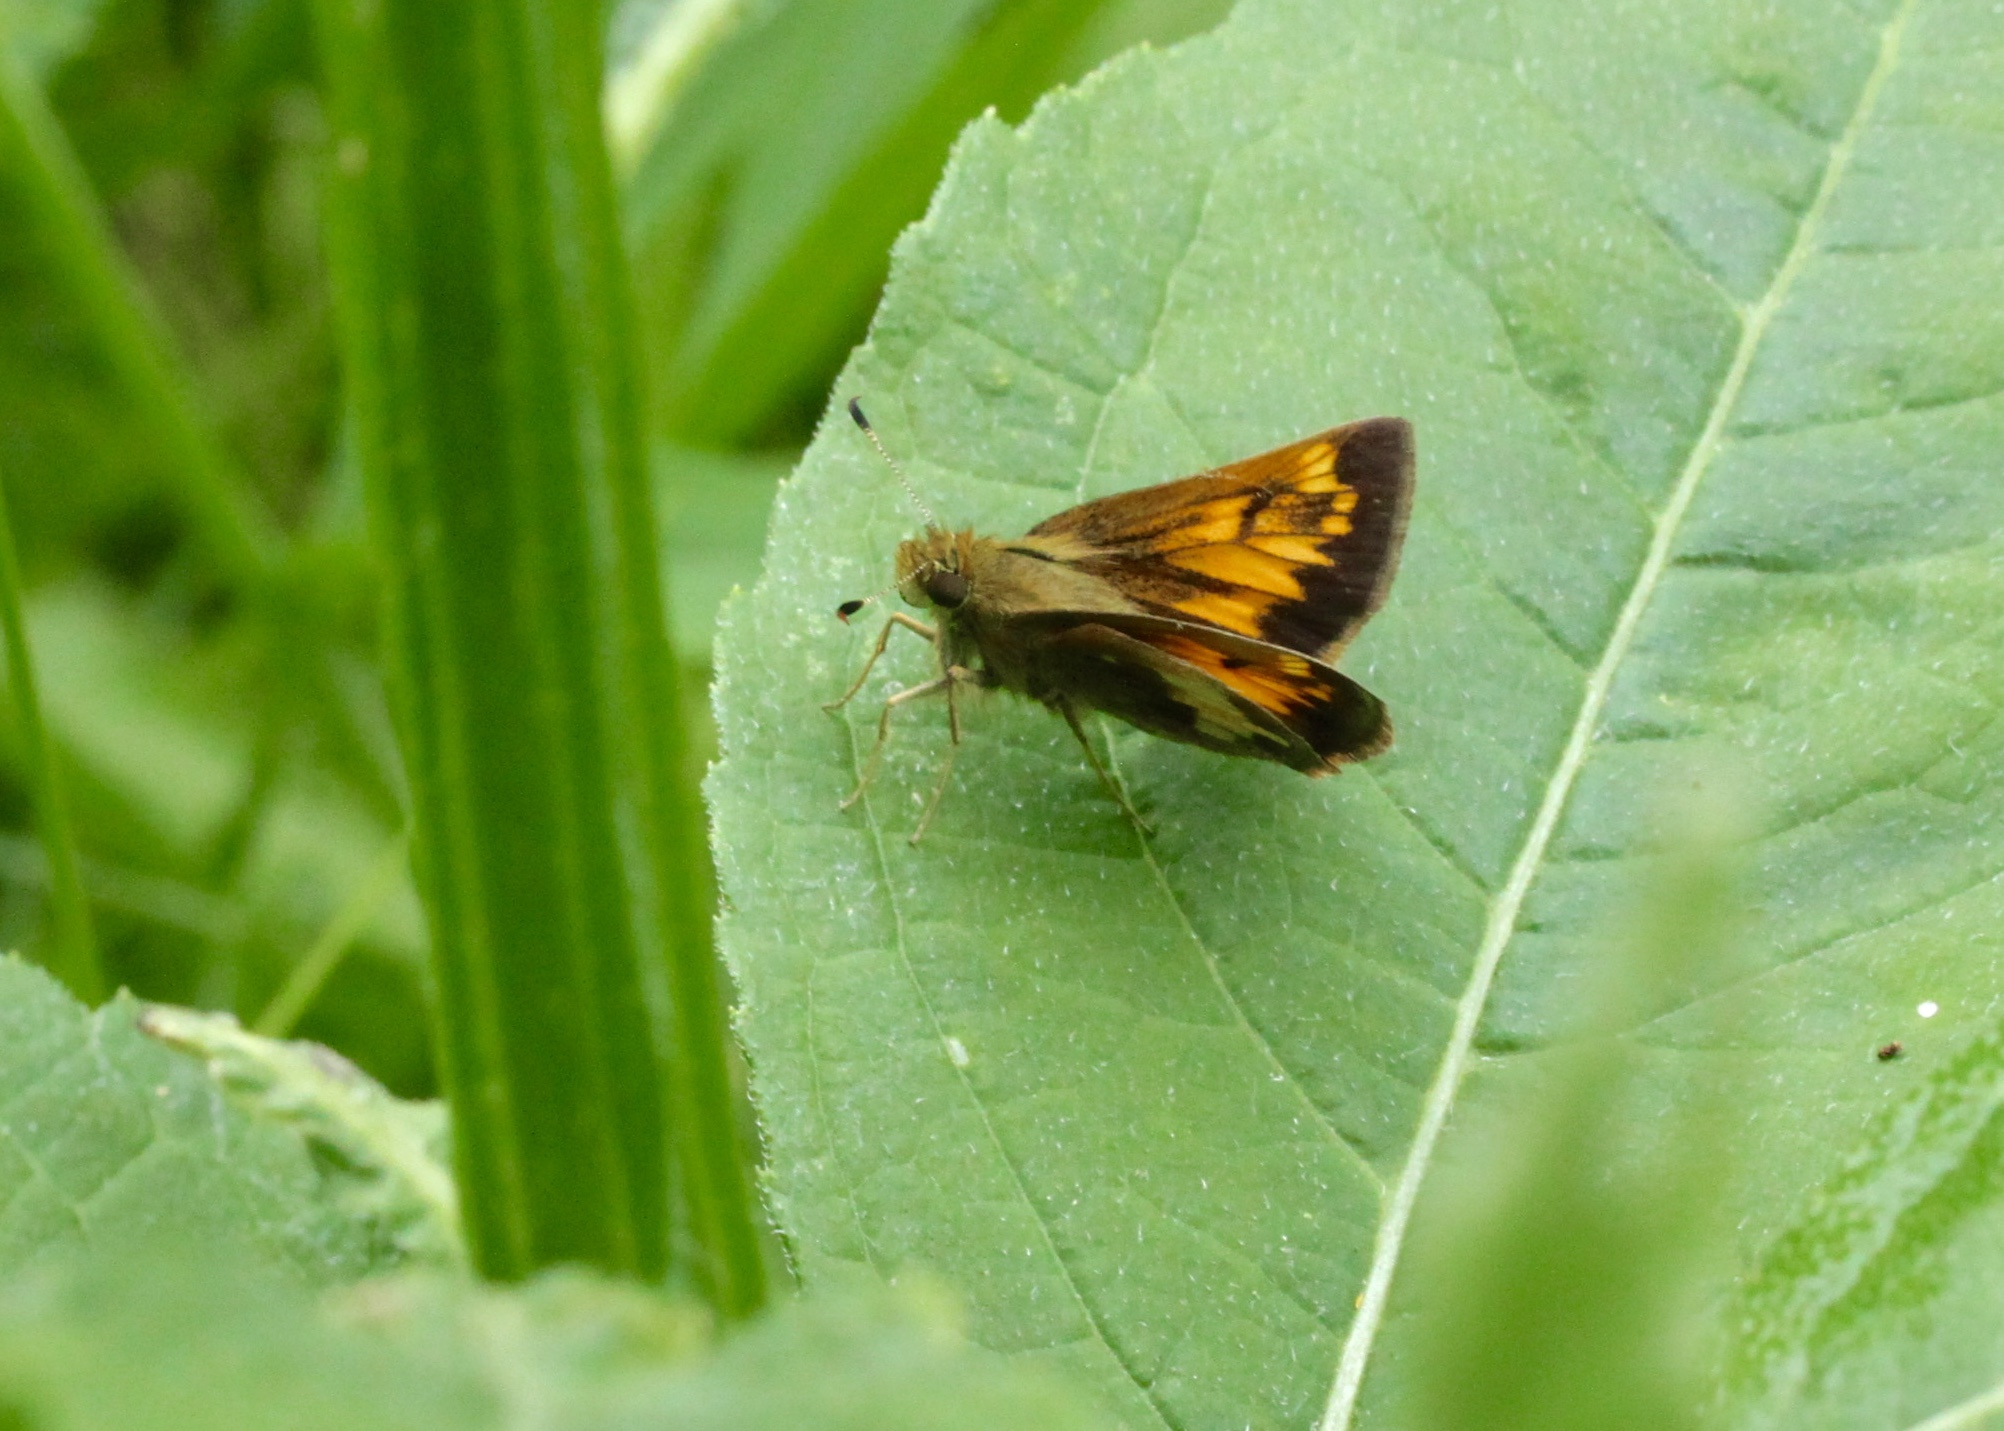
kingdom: Animalia
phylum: Arthropoda
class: Insecta
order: Lepidoptera
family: Hesperiidae
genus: Lon
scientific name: Lon hobomok
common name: Hobomok skipper
